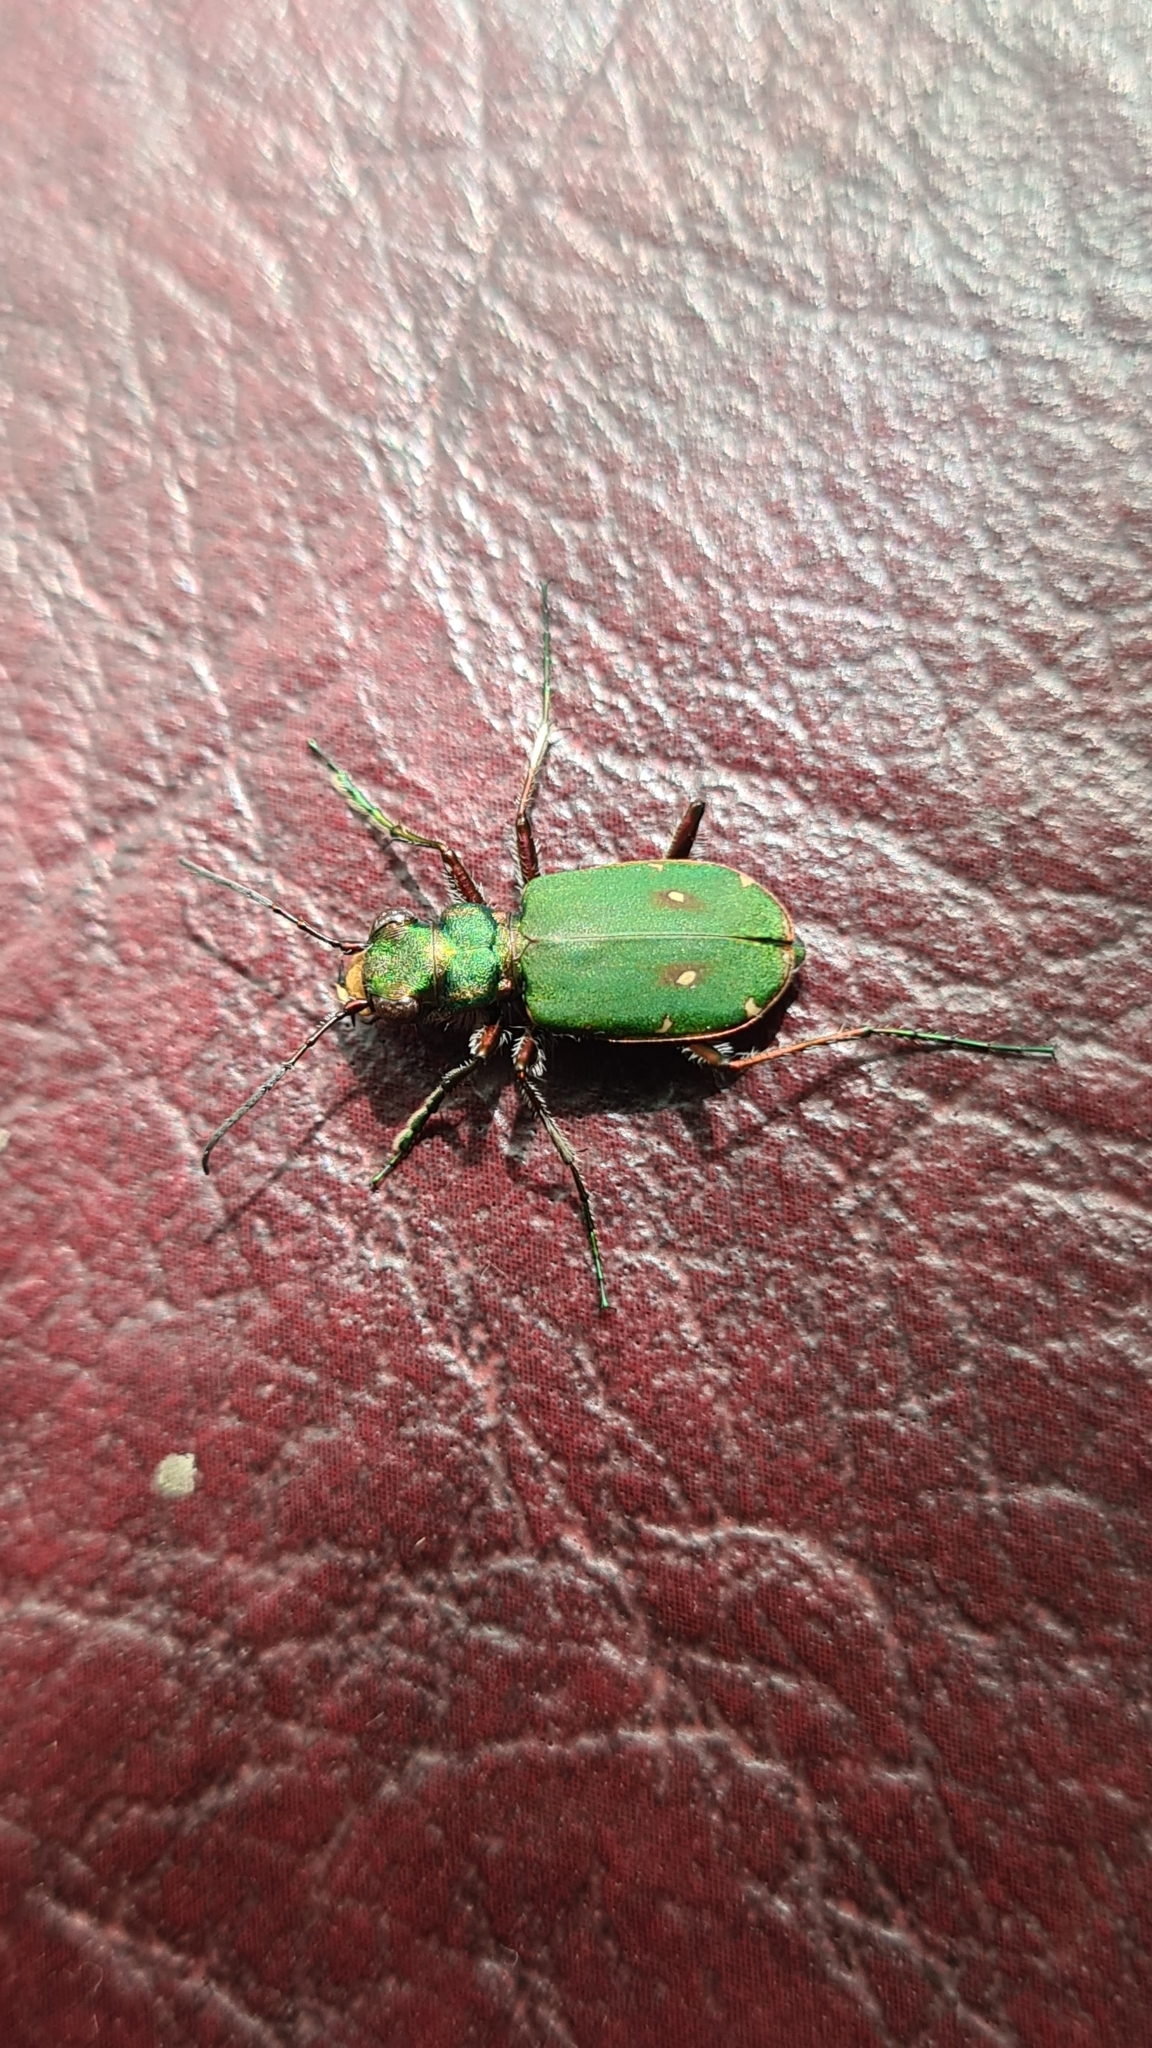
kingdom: Animalia
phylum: Arthropoda
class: Insecta
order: Coleoptera
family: Carabidae
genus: Cicindela
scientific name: Cicindela campestris
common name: Common tiger beetle
